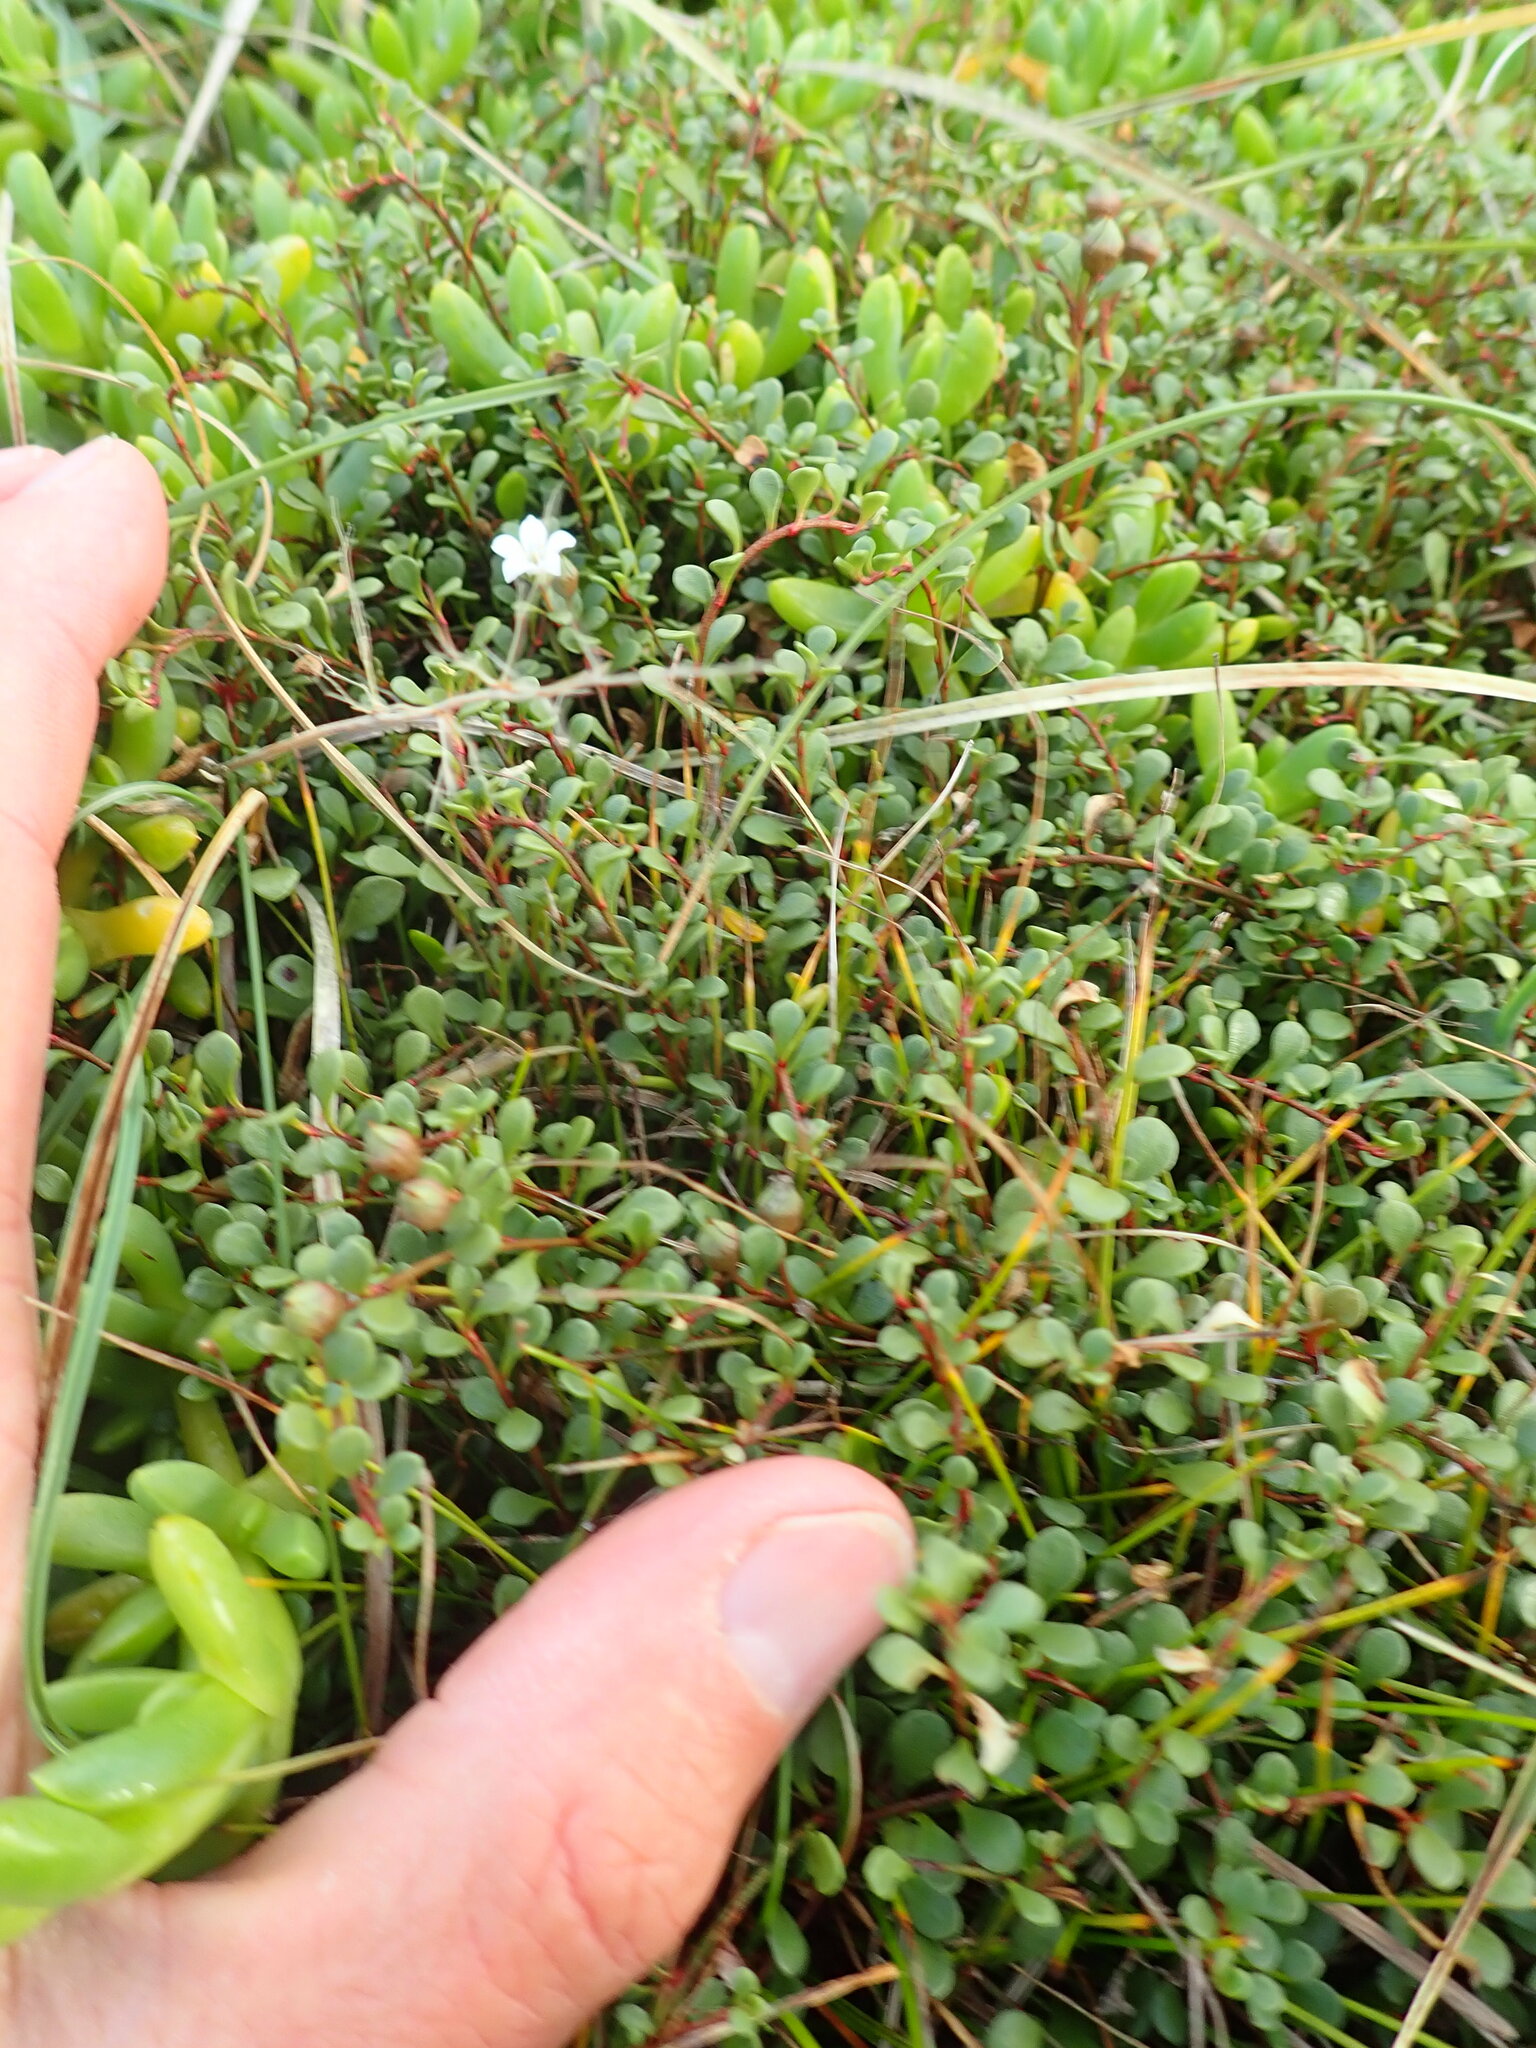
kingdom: Plantae
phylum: Tracheophyta
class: Magnoliopsida
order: Ericales
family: Primulaceae
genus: Samolus
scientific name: Samolus repens
